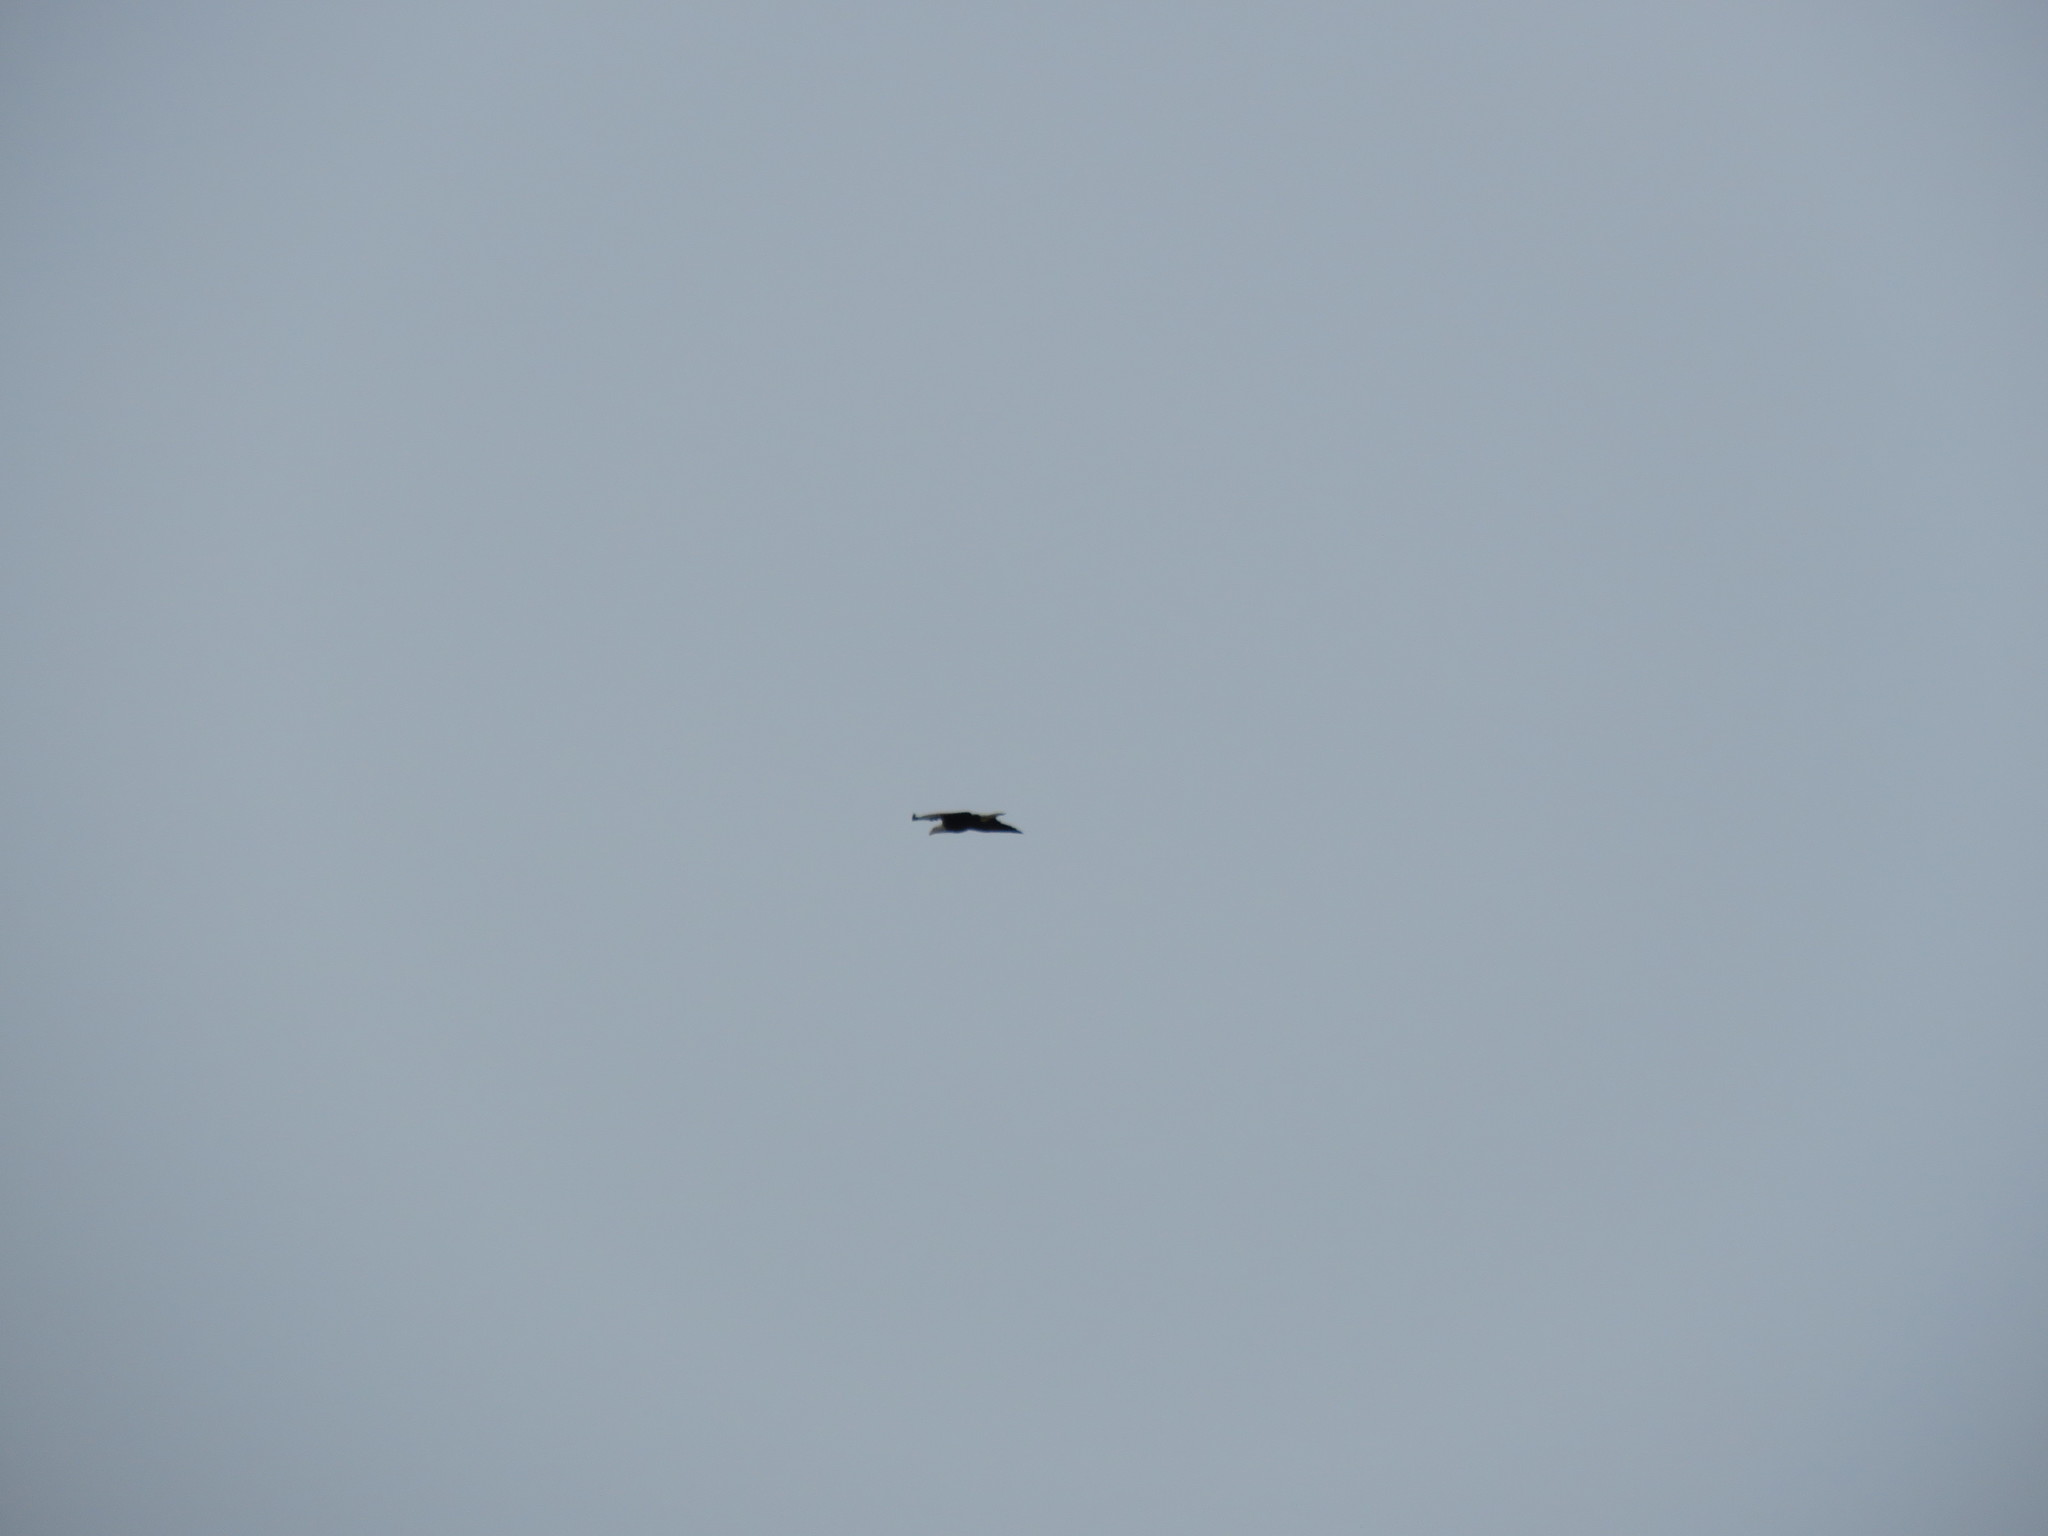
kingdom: Animalia
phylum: Chordata
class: Aves
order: Accipitriformes
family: Accipitridae
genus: Haliaeetus
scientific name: Haliaeetus leucocephalus
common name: Bald eagle
